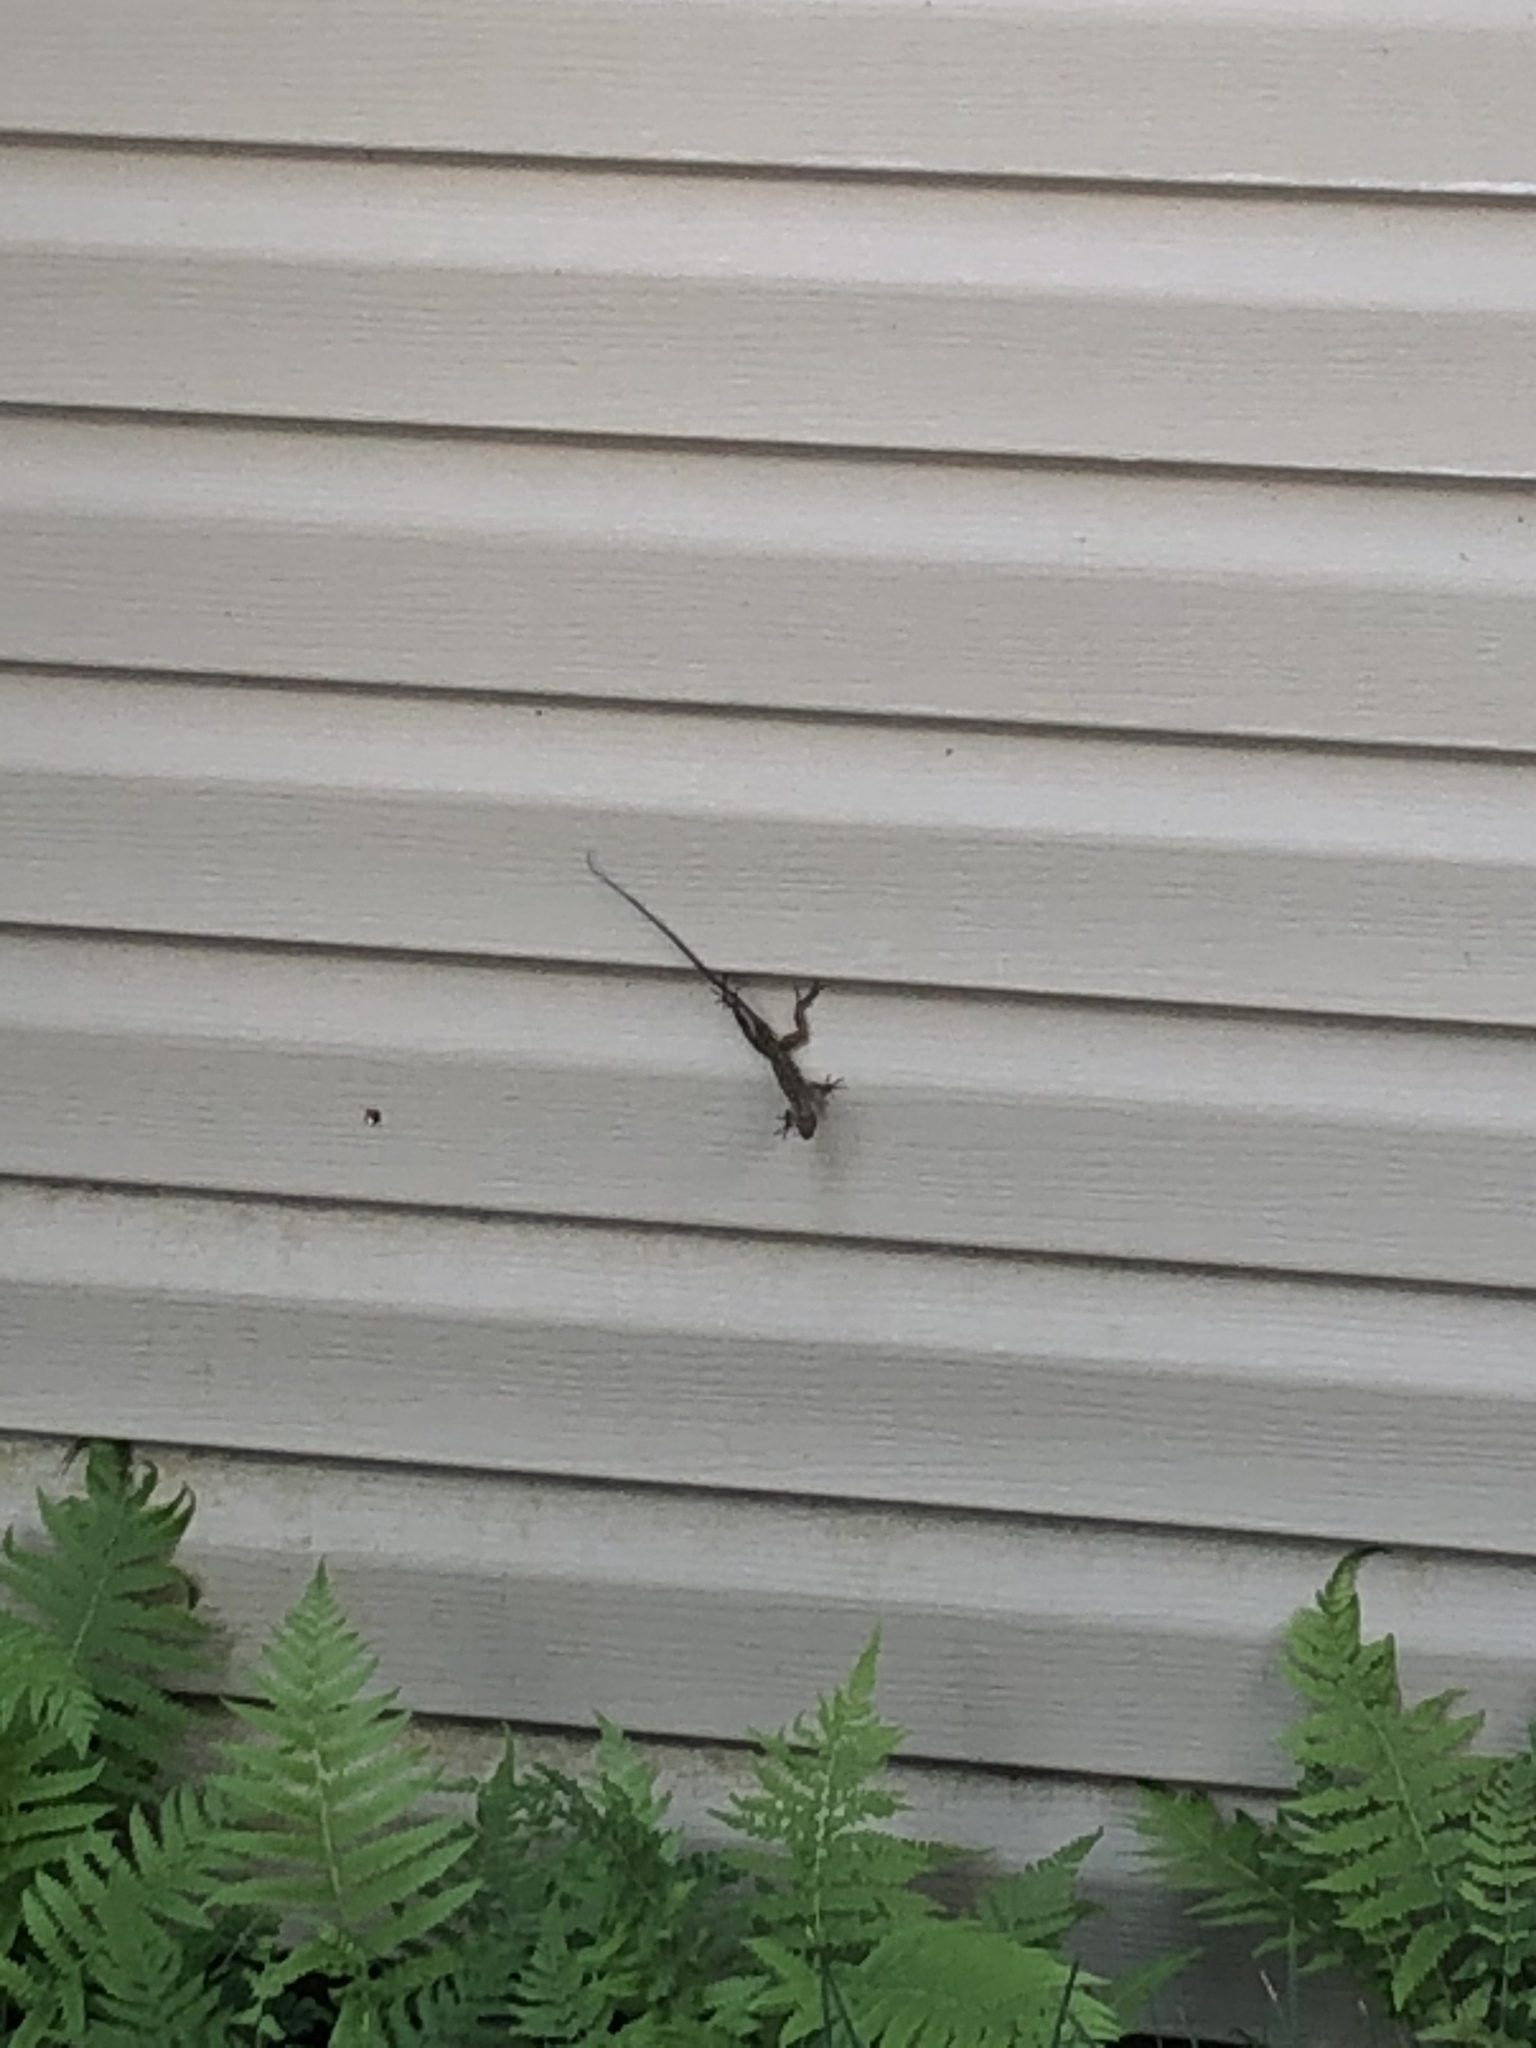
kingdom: Animalia
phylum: Chordata
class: Squamata
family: Dactyloidae
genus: Anolis
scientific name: Anolis sagrei
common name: Brown anole
